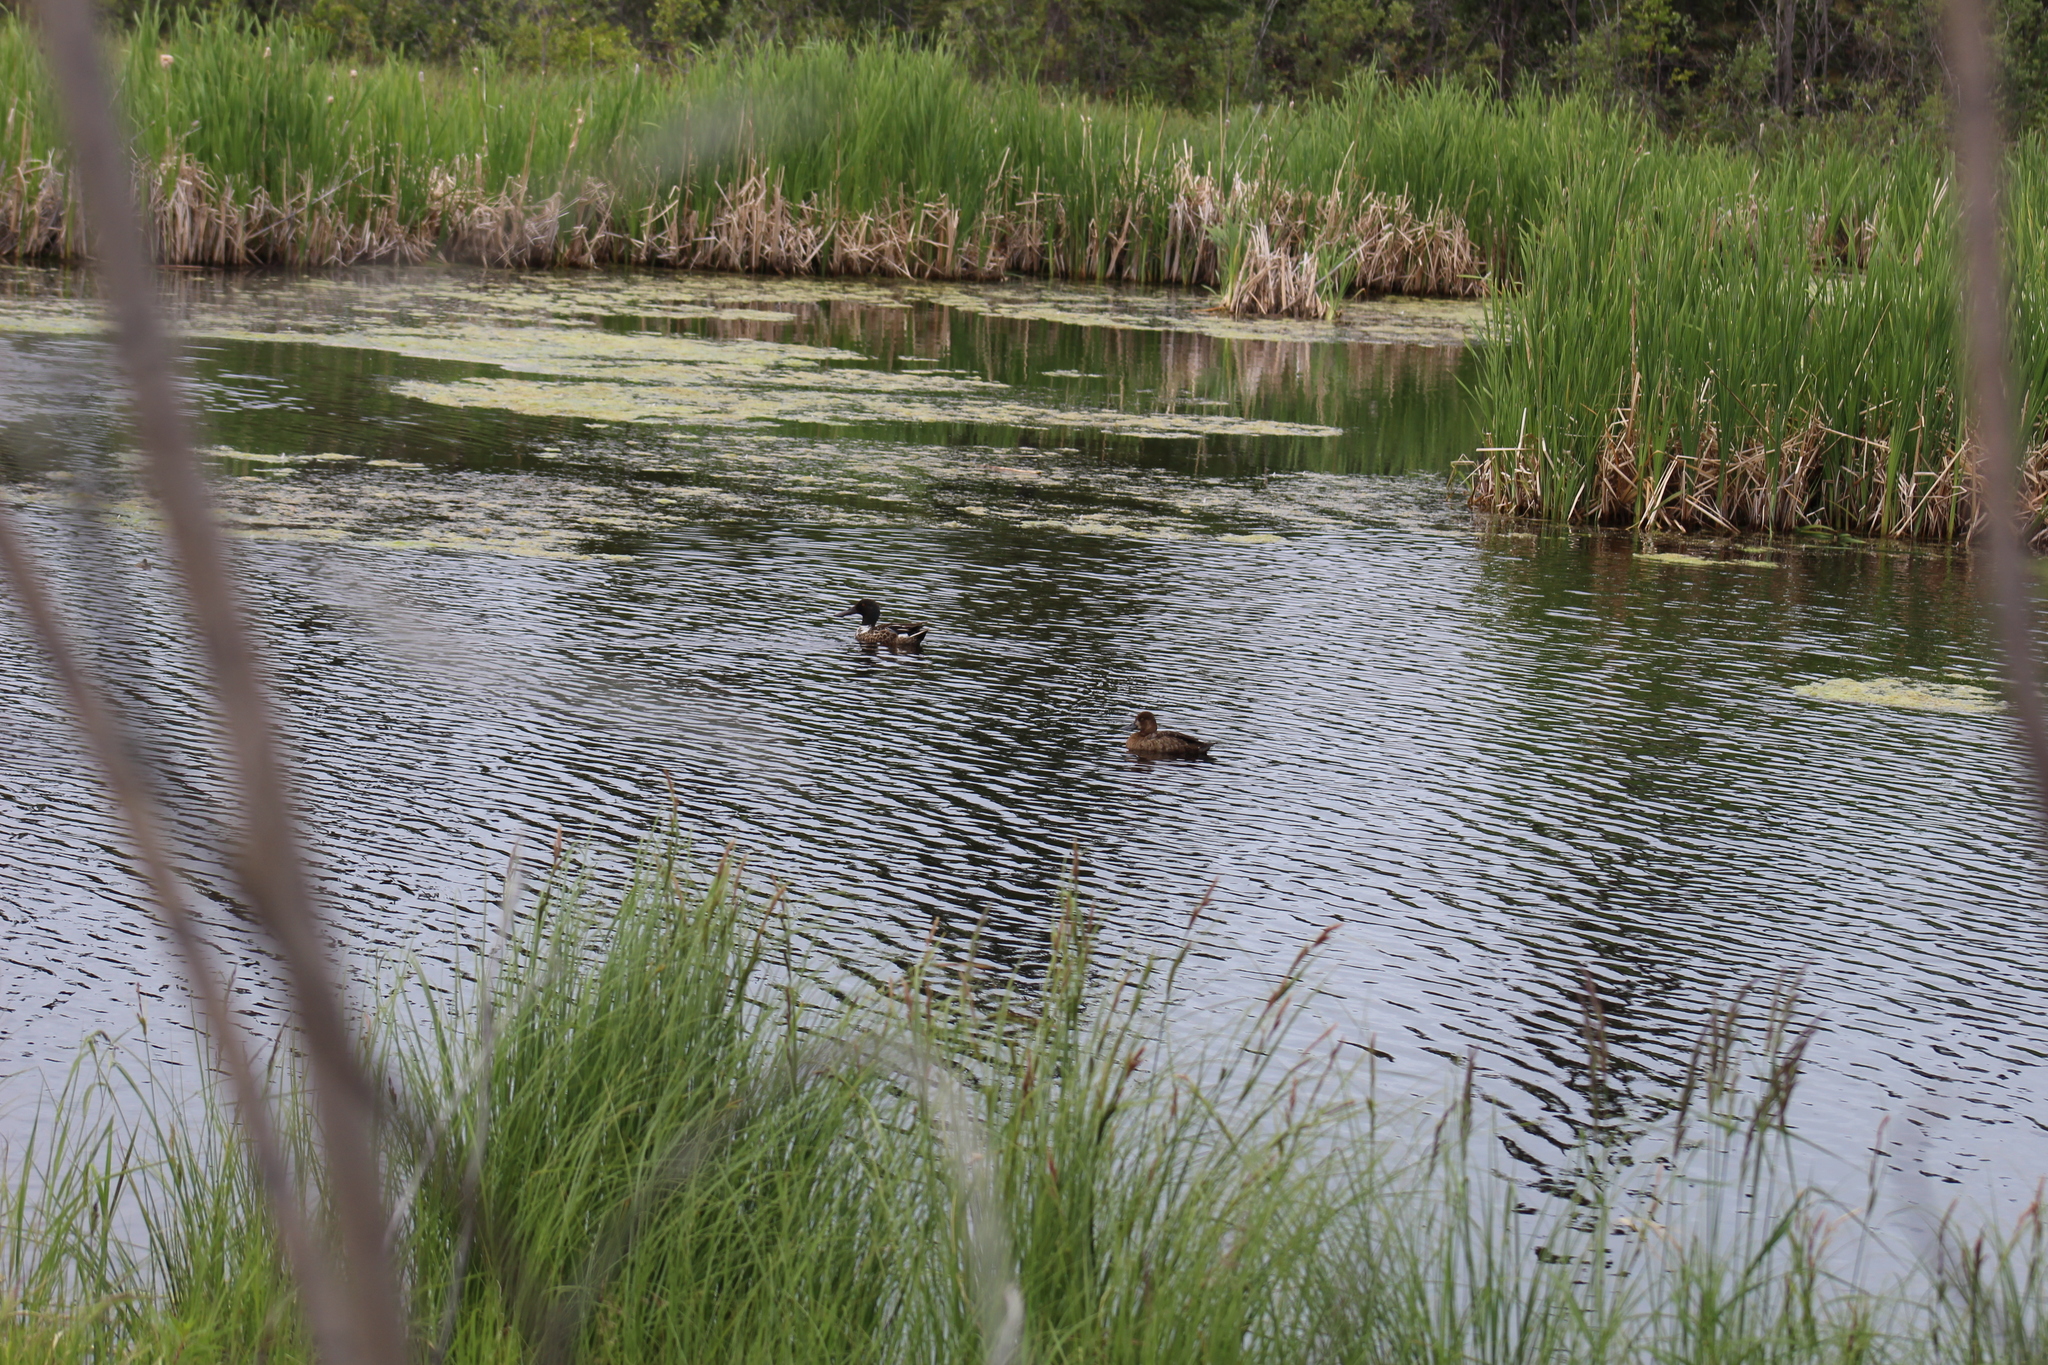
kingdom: Animalia
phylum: Chordata
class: Aves
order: Anseriformes
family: Anatidae
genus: Spatula
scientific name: Spatula clypeata
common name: Northern shoveler
